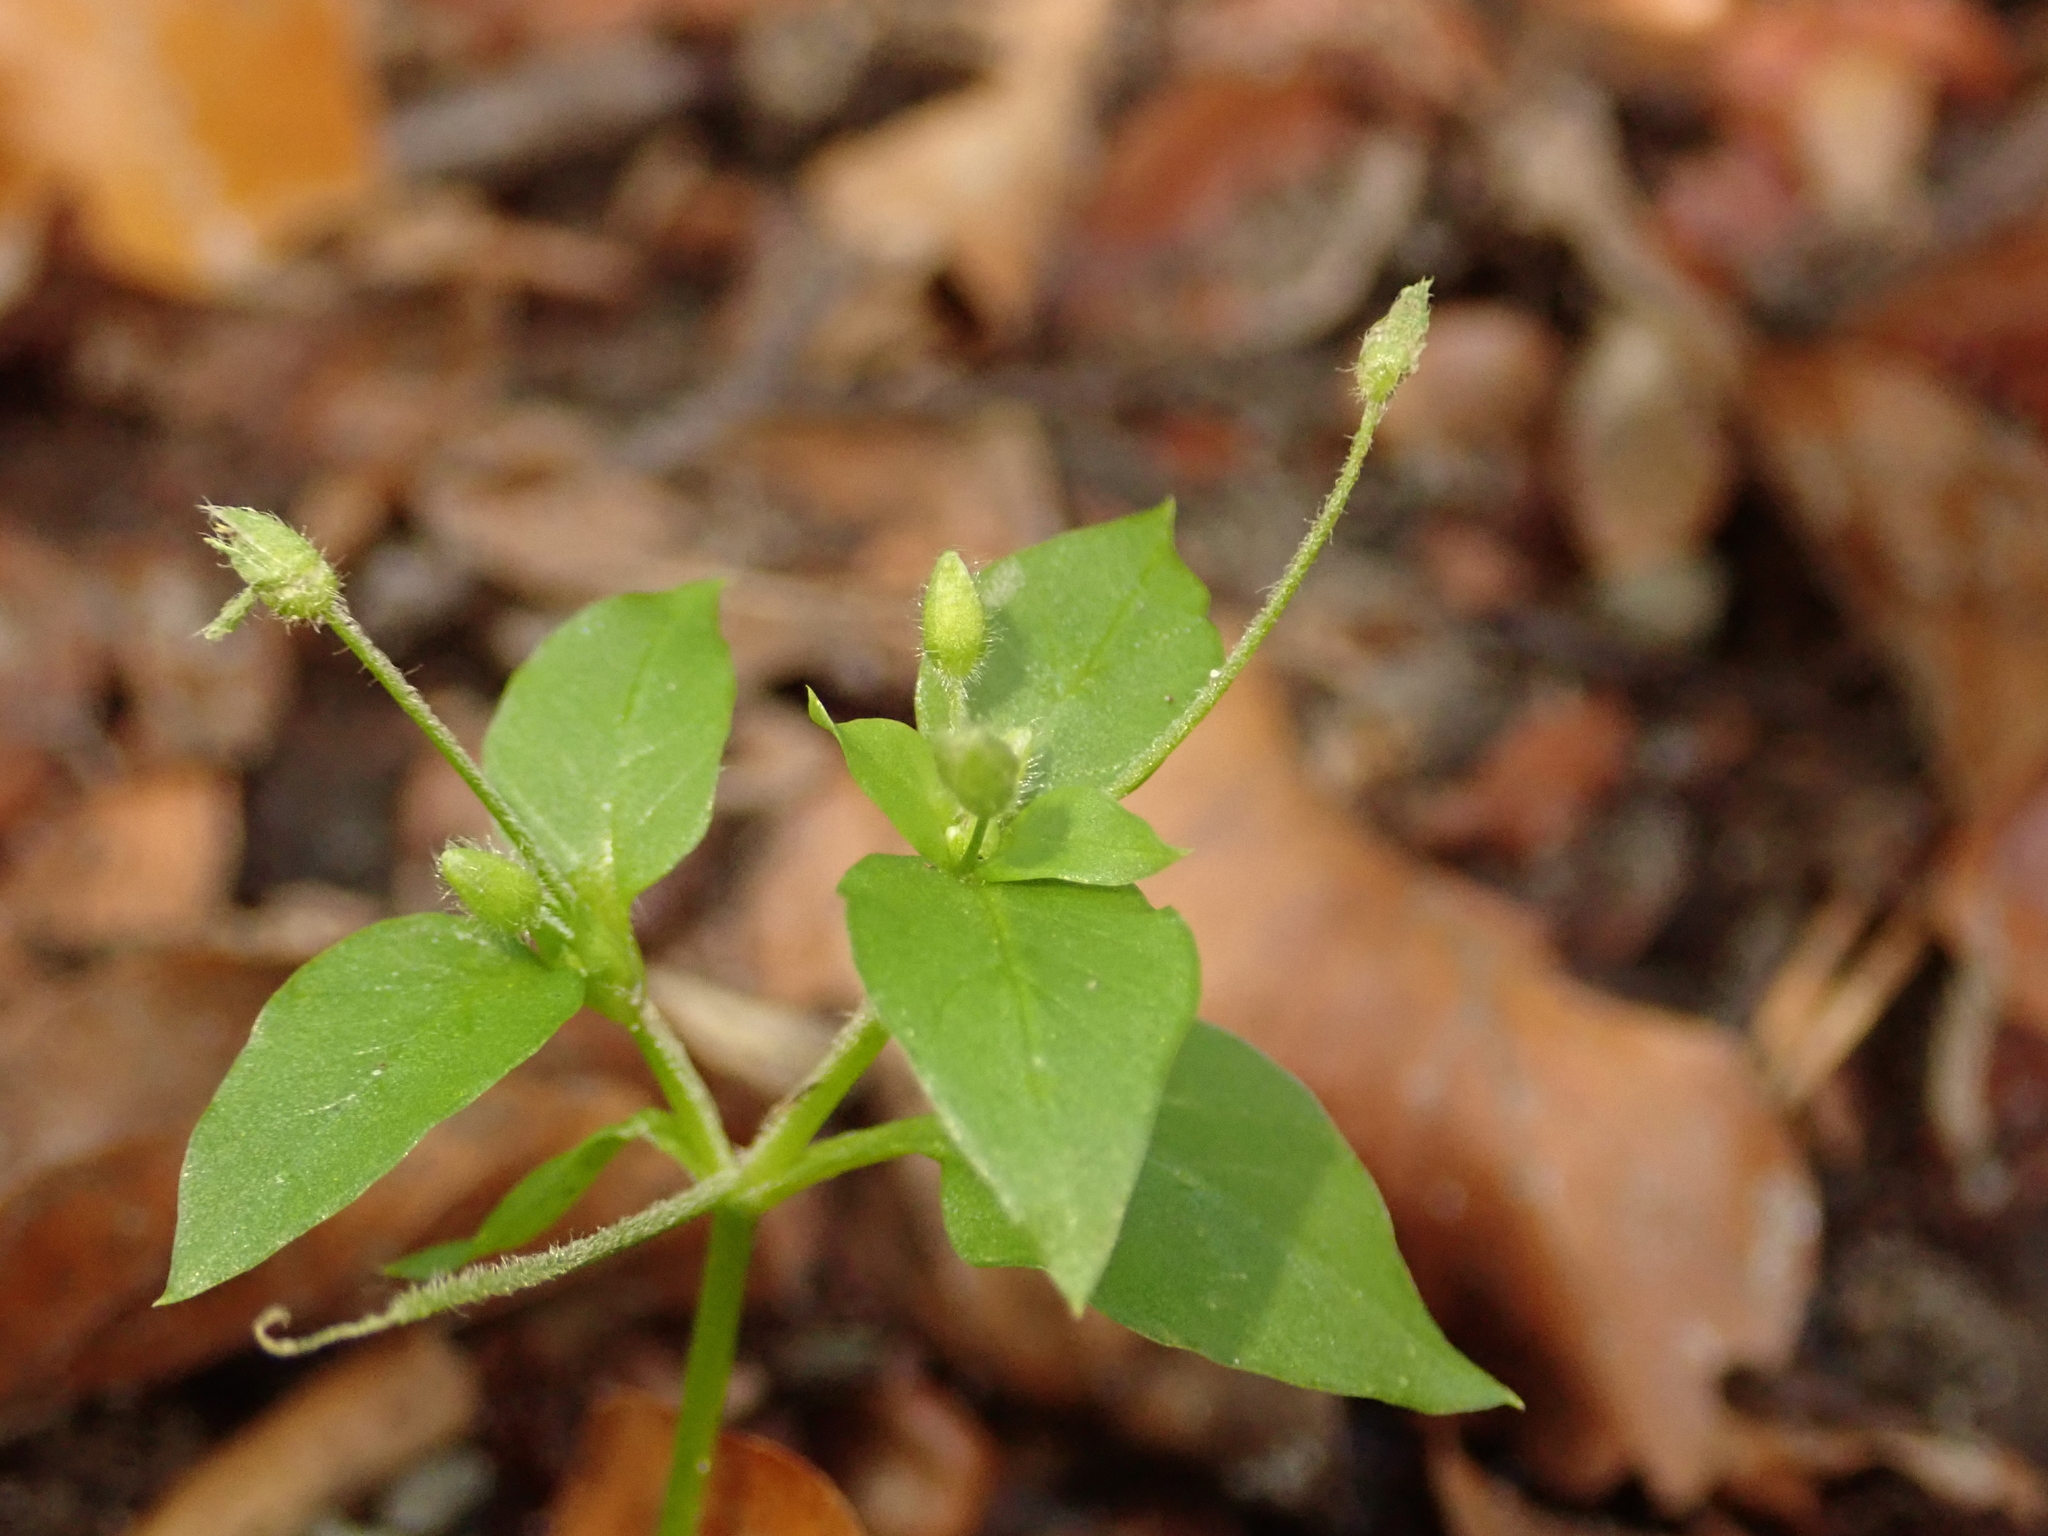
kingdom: Plantae
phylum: Tracheophyta
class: Magnoliopsida
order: Caryophyllales
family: Caryophyllaceae
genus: Stellaria
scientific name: Stellaria media
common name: Common chickweed
